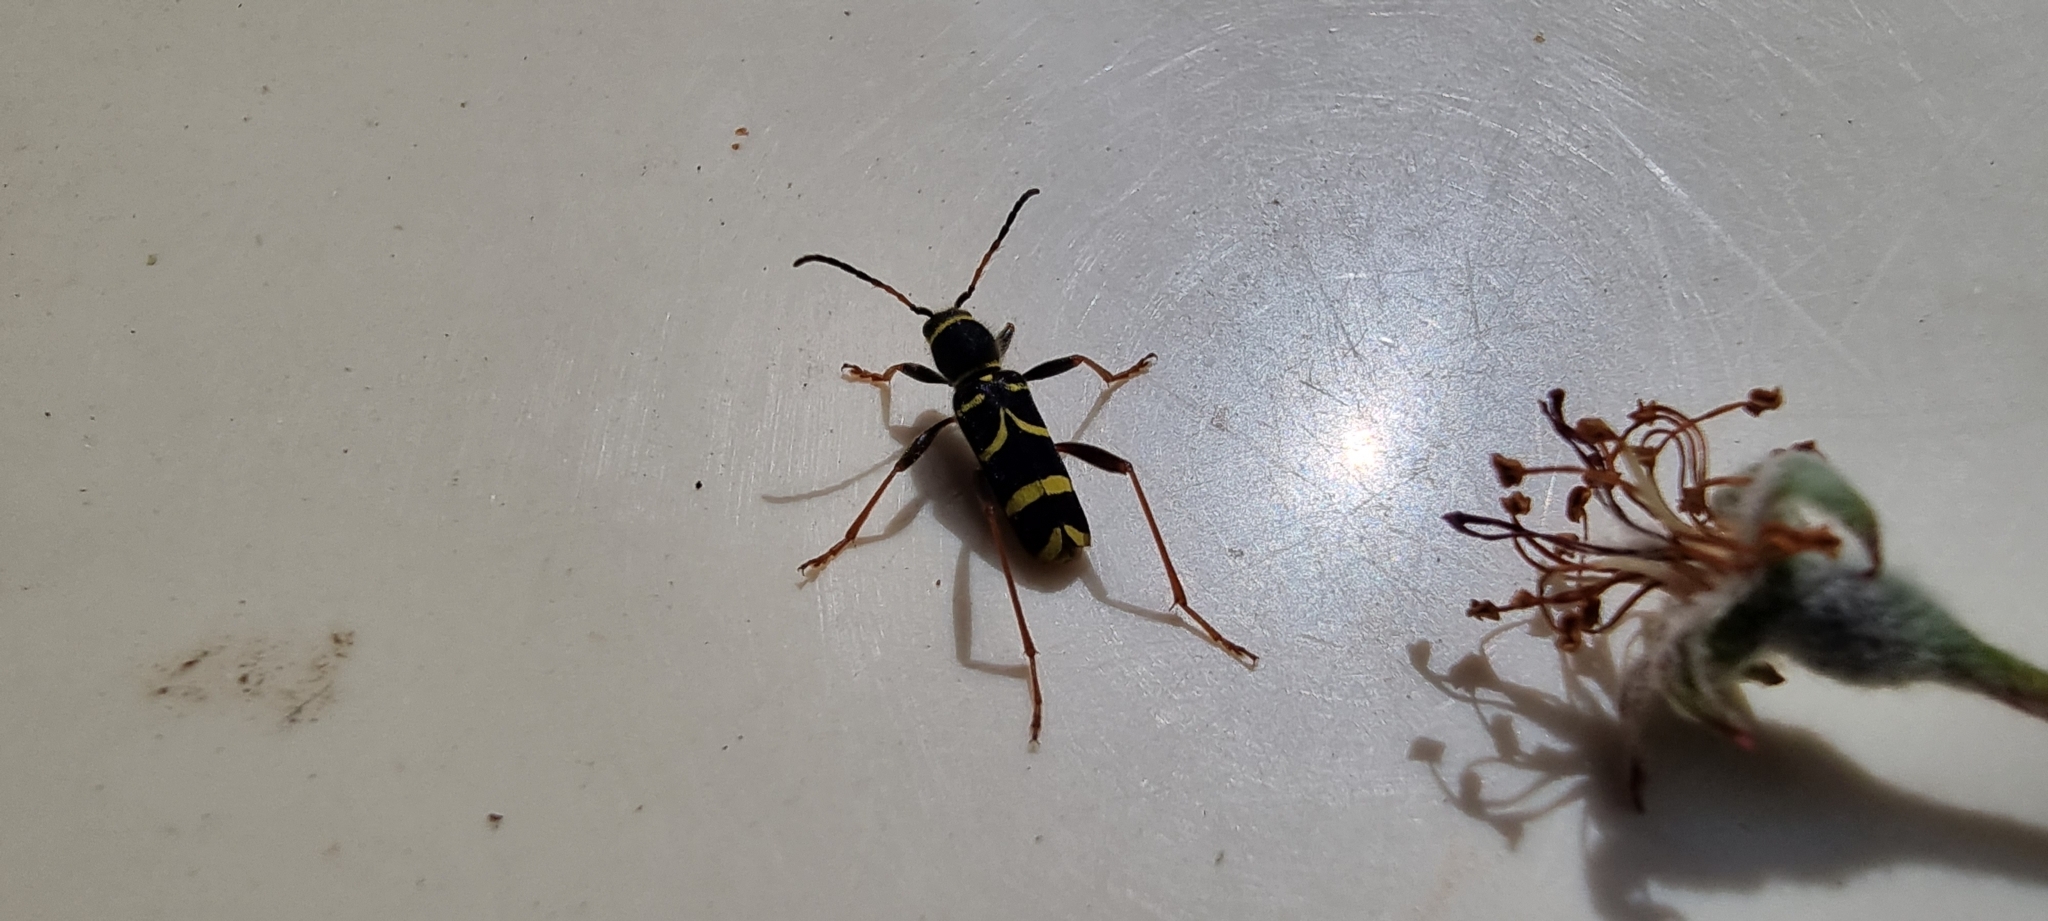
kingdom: Animalia
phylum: Arthropoda
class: Insecta
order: Coleoptera
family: Cerambycidae
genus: Clytus
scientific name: Clytus arietis
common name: Wasp beetle
